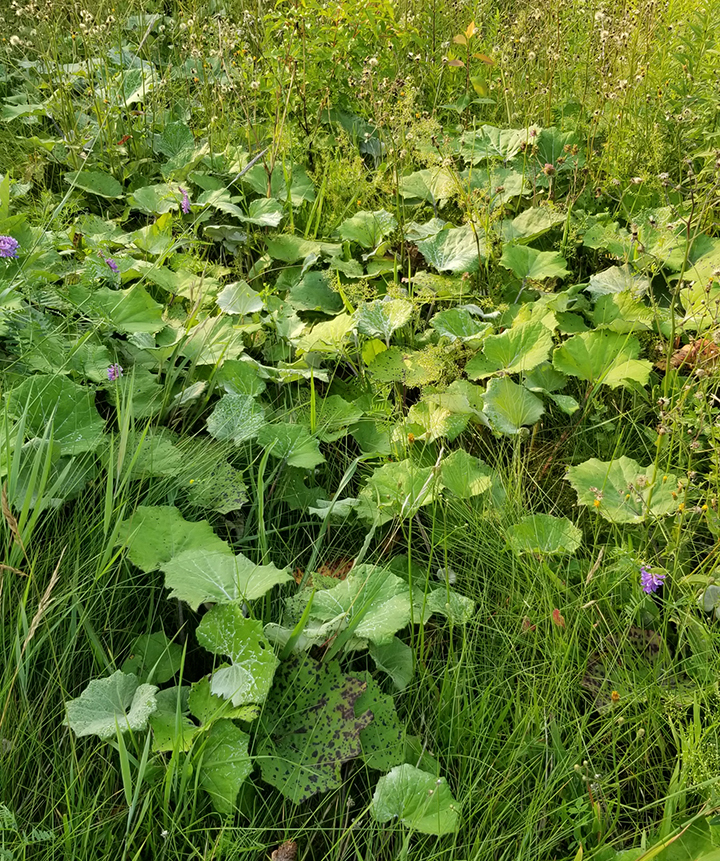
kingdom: Plantae
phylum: Tracheophyta
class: Magnoliopsida
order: Asterales
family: Asteraceae
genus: Tussilago
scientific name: Tussilago farfara
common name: Coltsfoot
